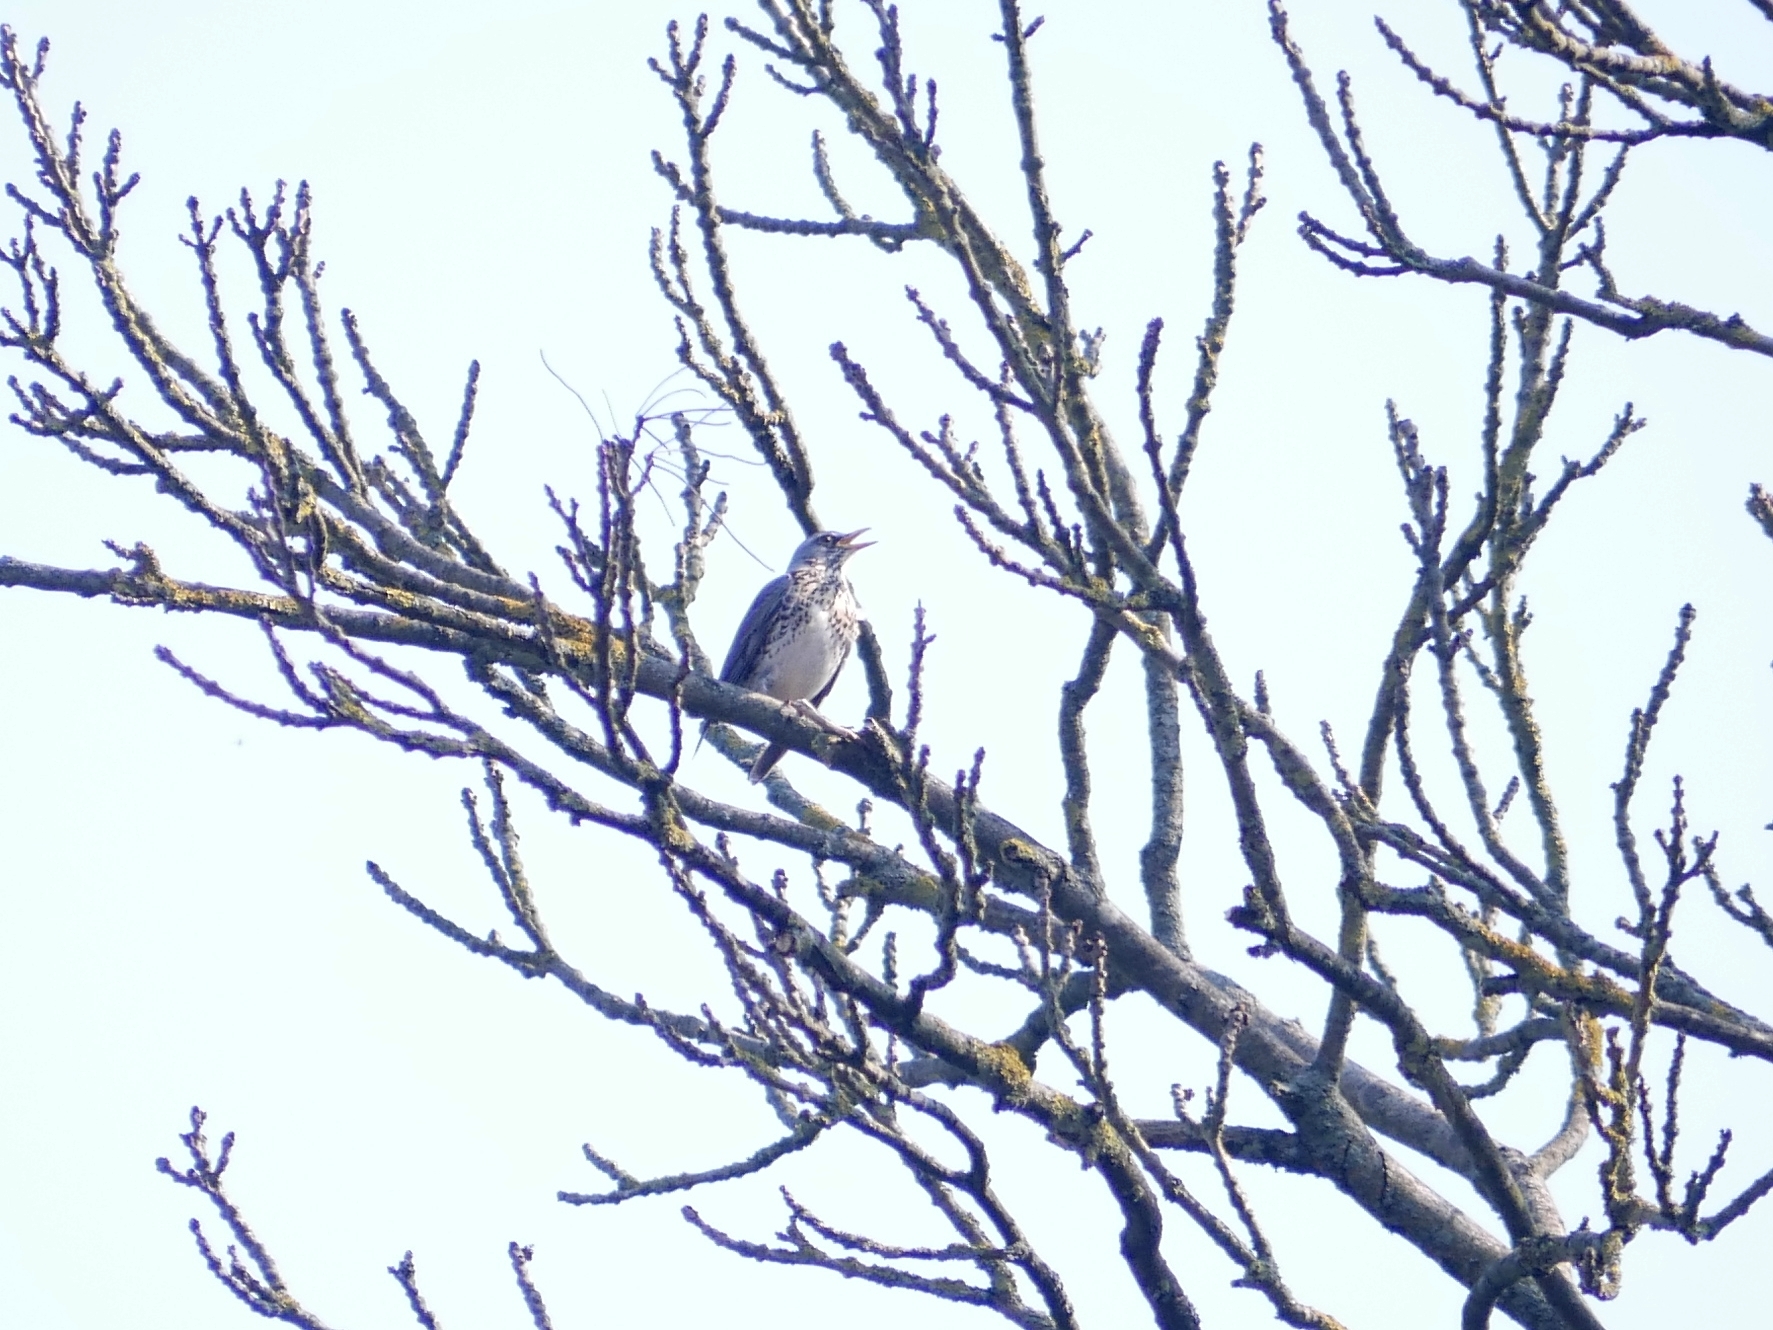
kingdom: Animalia
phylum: Chordata
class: Aves
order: Passeriformes
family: Turdidae
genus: Turdus
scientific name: Turdus pilaris
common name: Fieldfare
